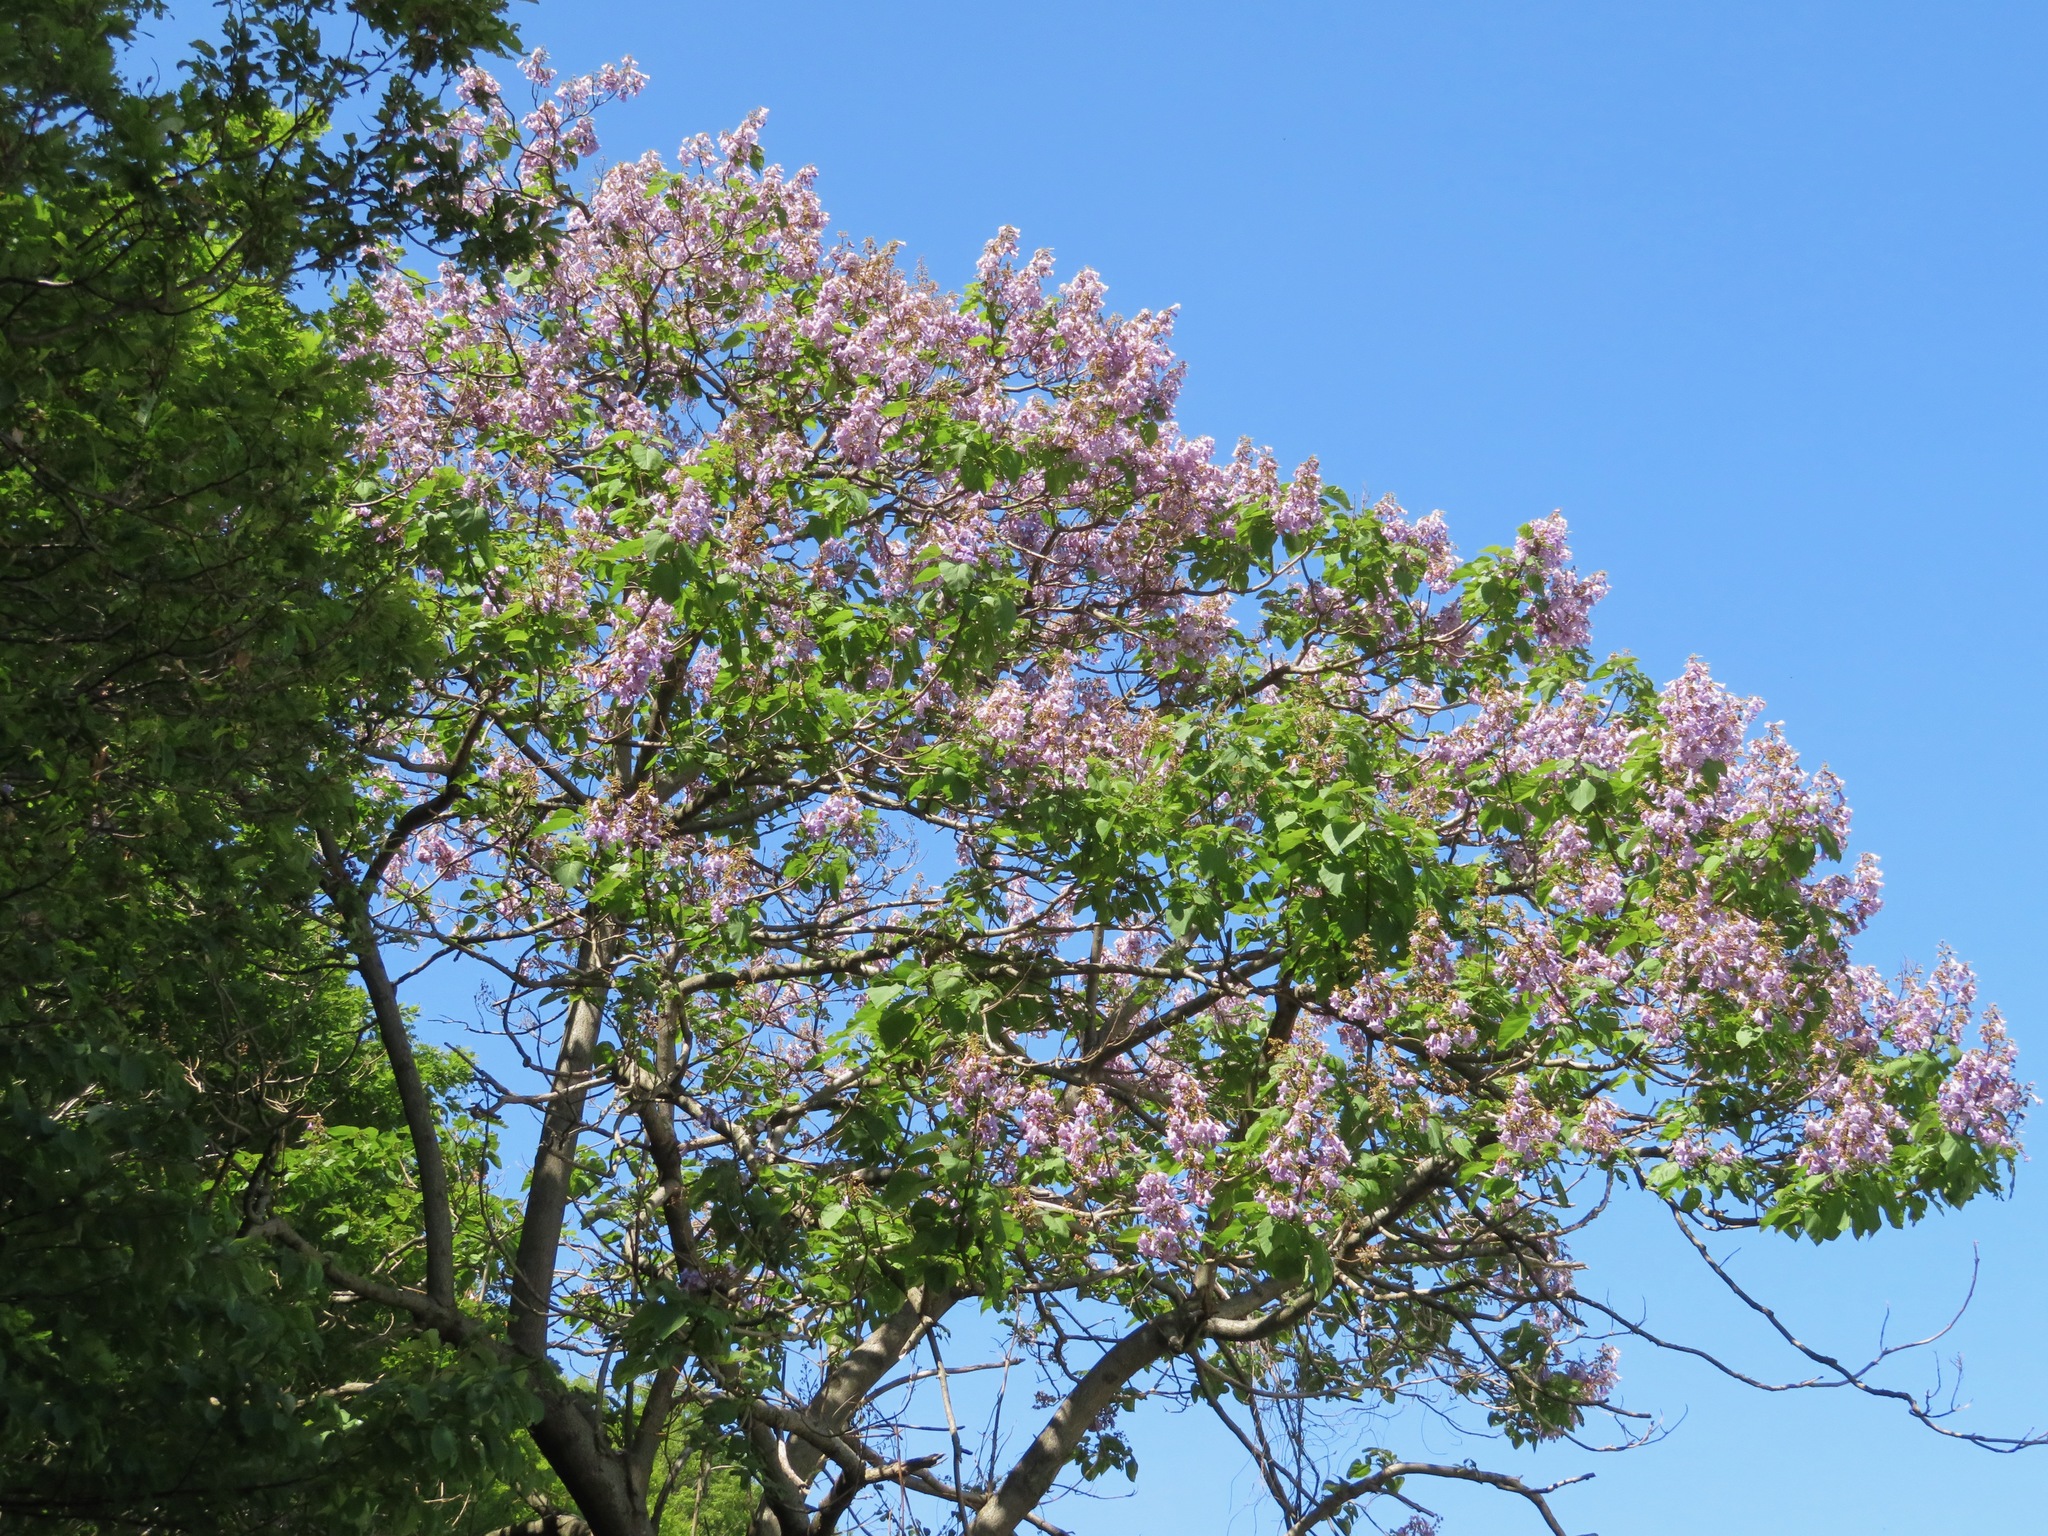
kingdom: Plantae
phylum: Tracheophyta
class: Magnoliopsida
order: Lamiales
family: Paulowniaceae
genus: Paulownia
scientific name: Paulownia tomentosa
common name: Foxglove-tree
